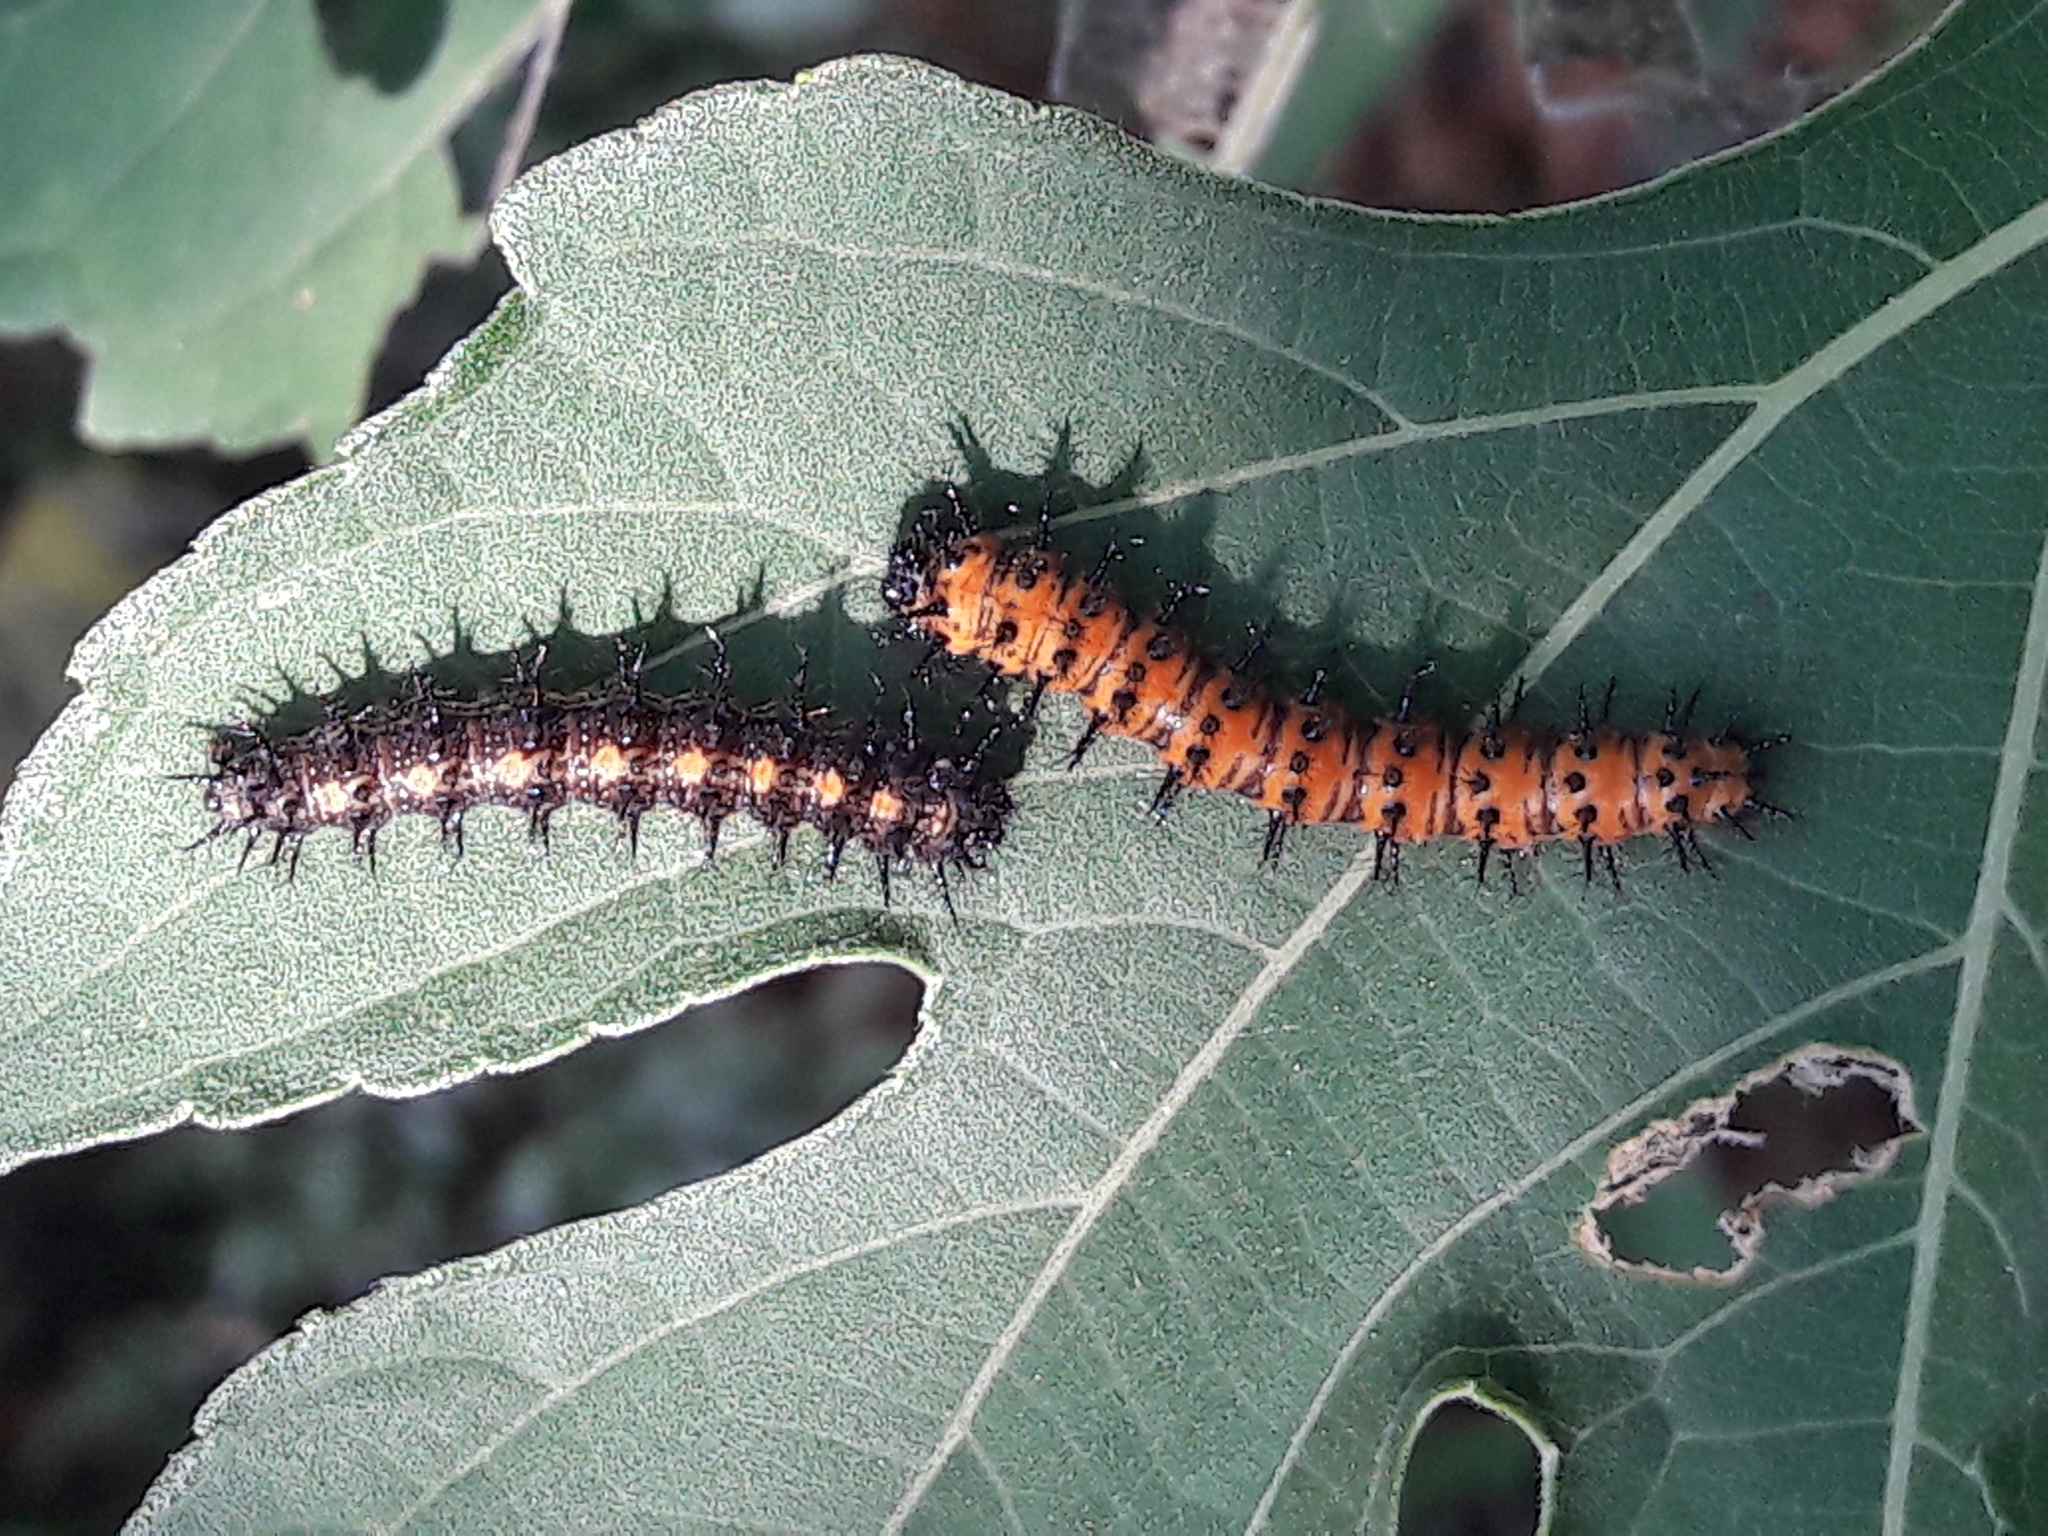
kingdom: Animalia
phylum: Arthropoda
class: Insecta
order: Lepidoptera
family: Nymphalidae
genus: Chlosyne
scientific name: Chlosyne lacinia
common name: Bordered patch
